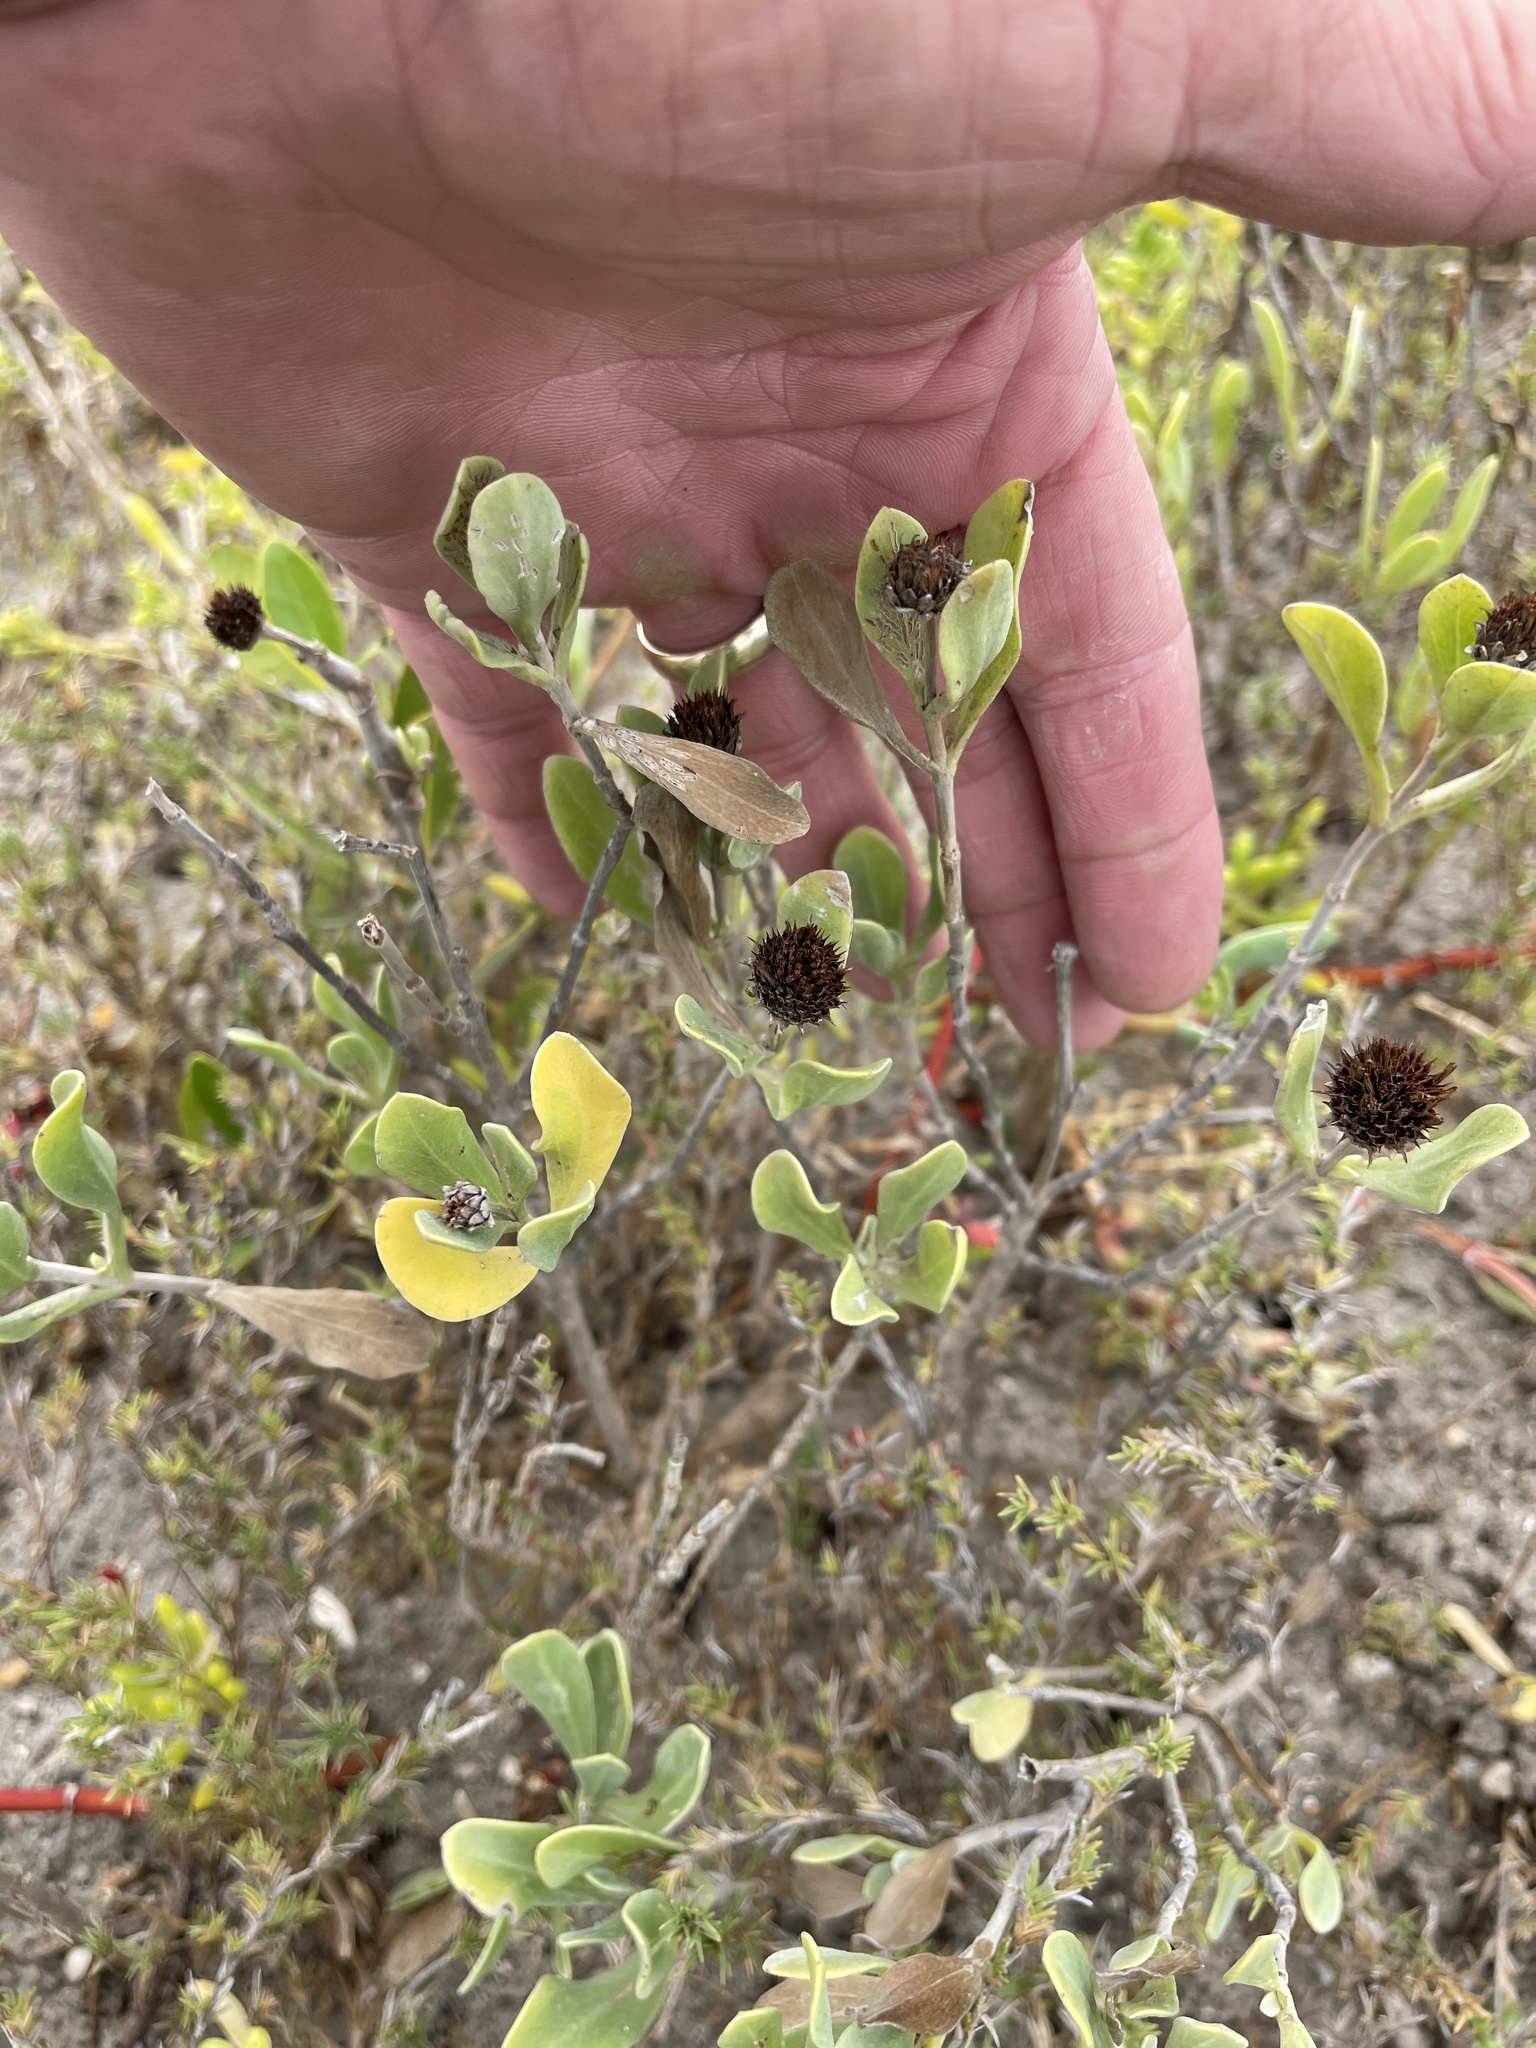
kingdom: Plantae
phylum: Tracheophyta
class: Magnoliopsida
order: Asterales
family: Asteraceae
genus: Borrichia
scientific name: Borrichia frutescens
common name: Sea oxeye
